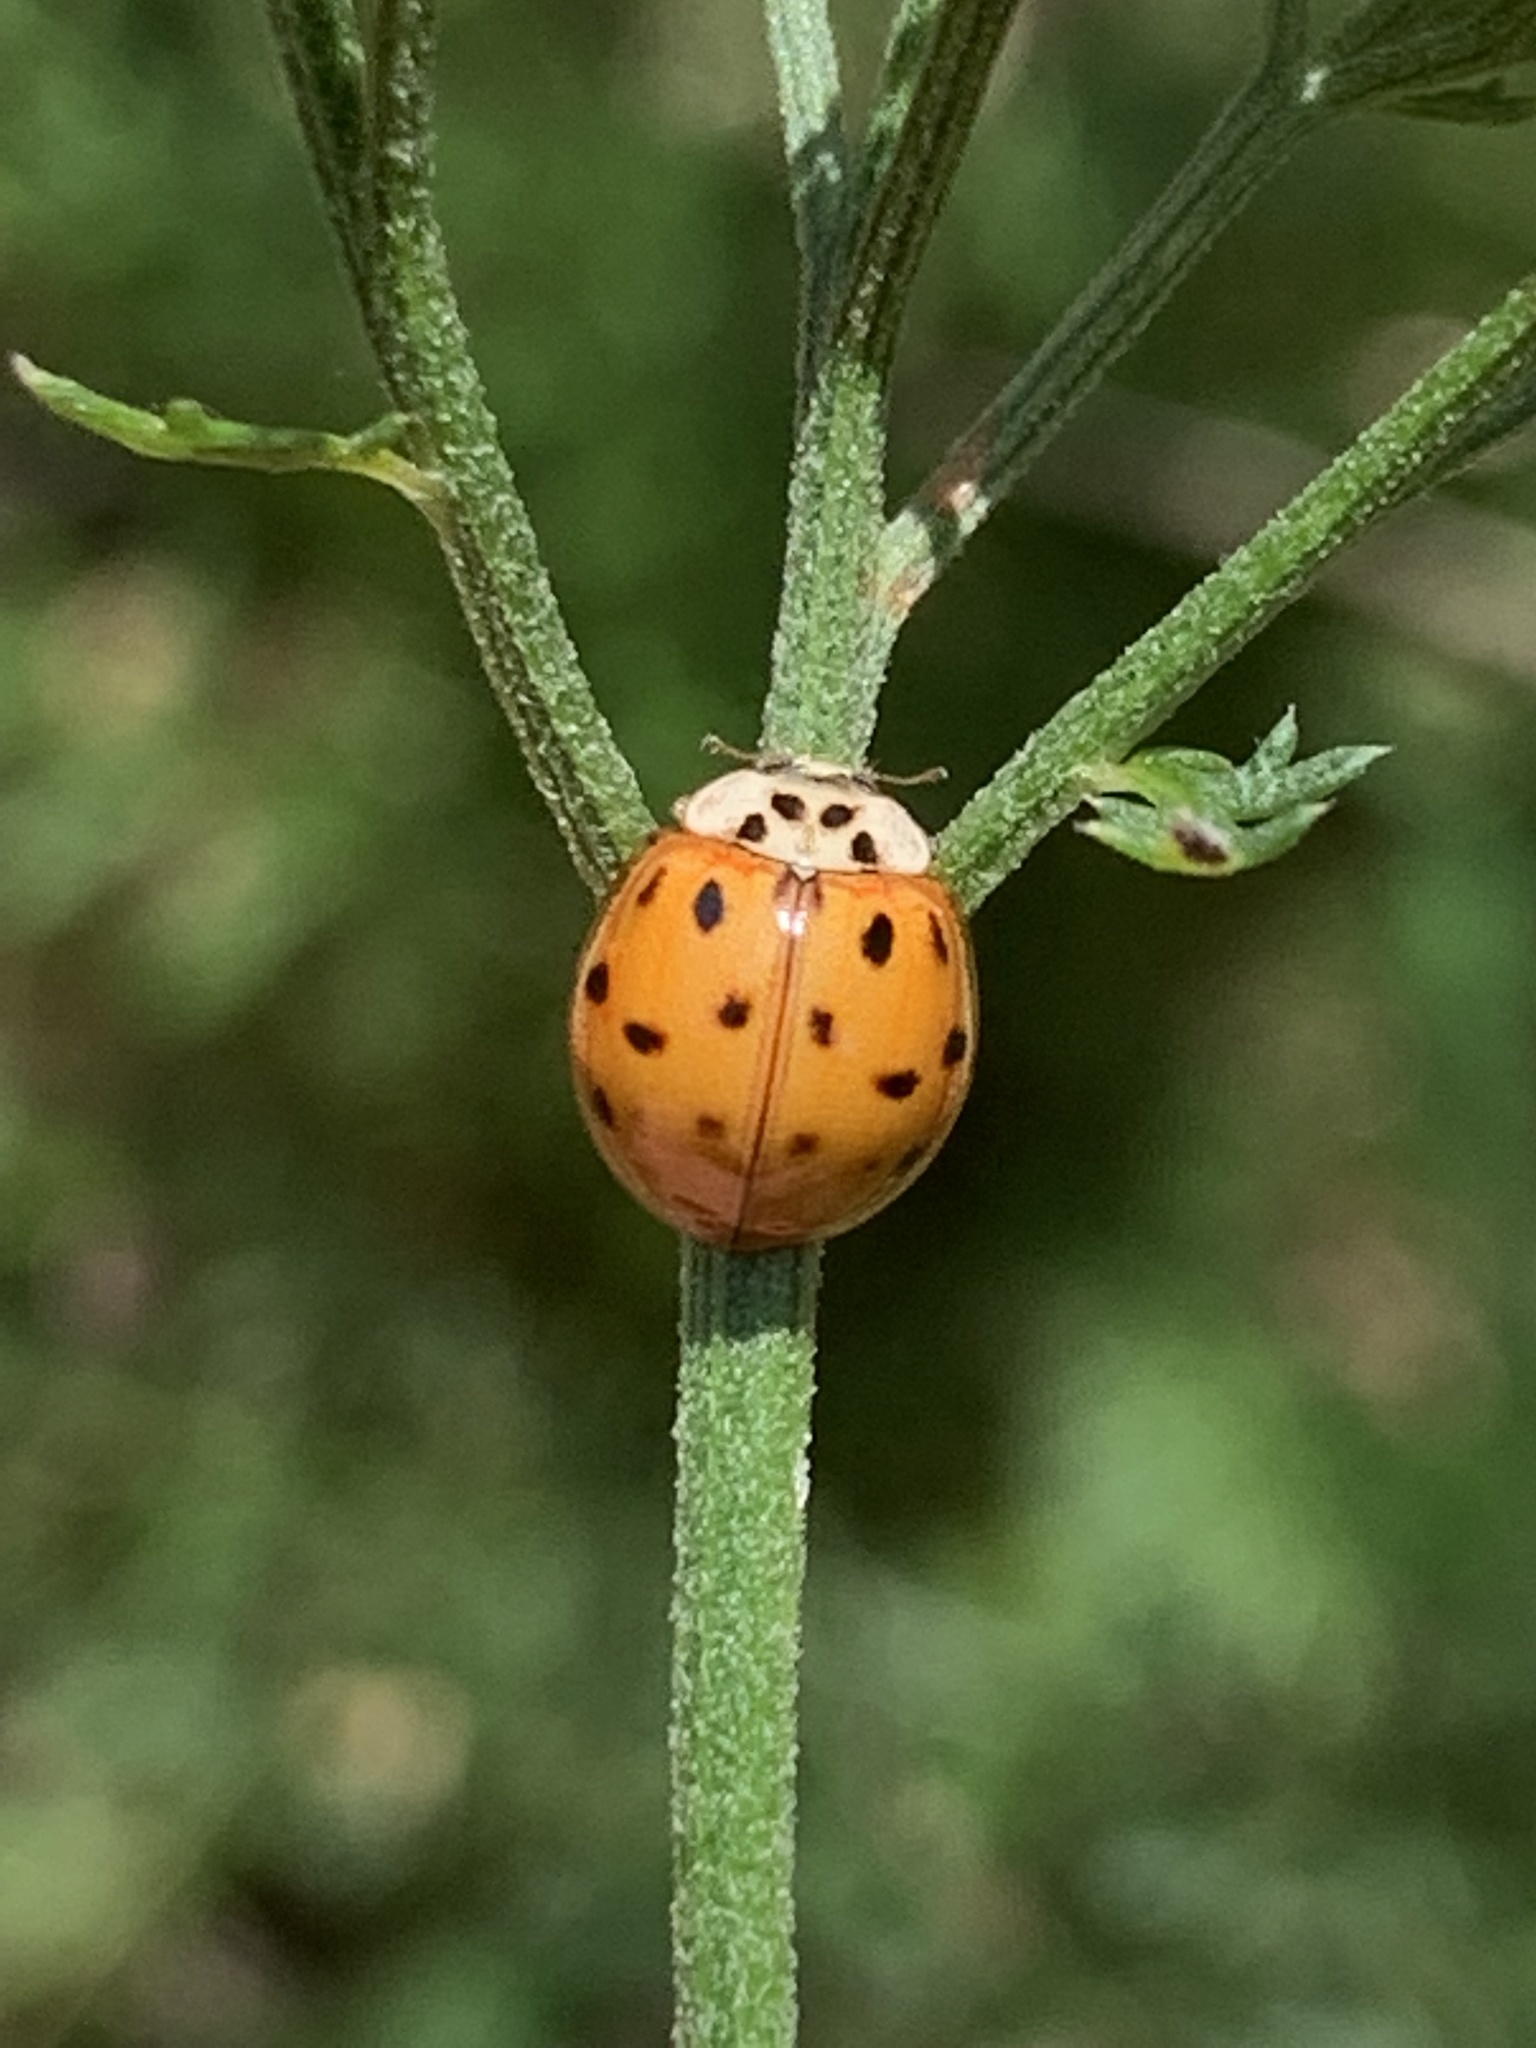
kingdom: Animalia
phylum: Arthropoda
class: Insecta
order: Coleoptera
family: Coccinellidae
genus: Harmonia
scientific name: Harmonia axyridis
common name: Harlequin ladybird
